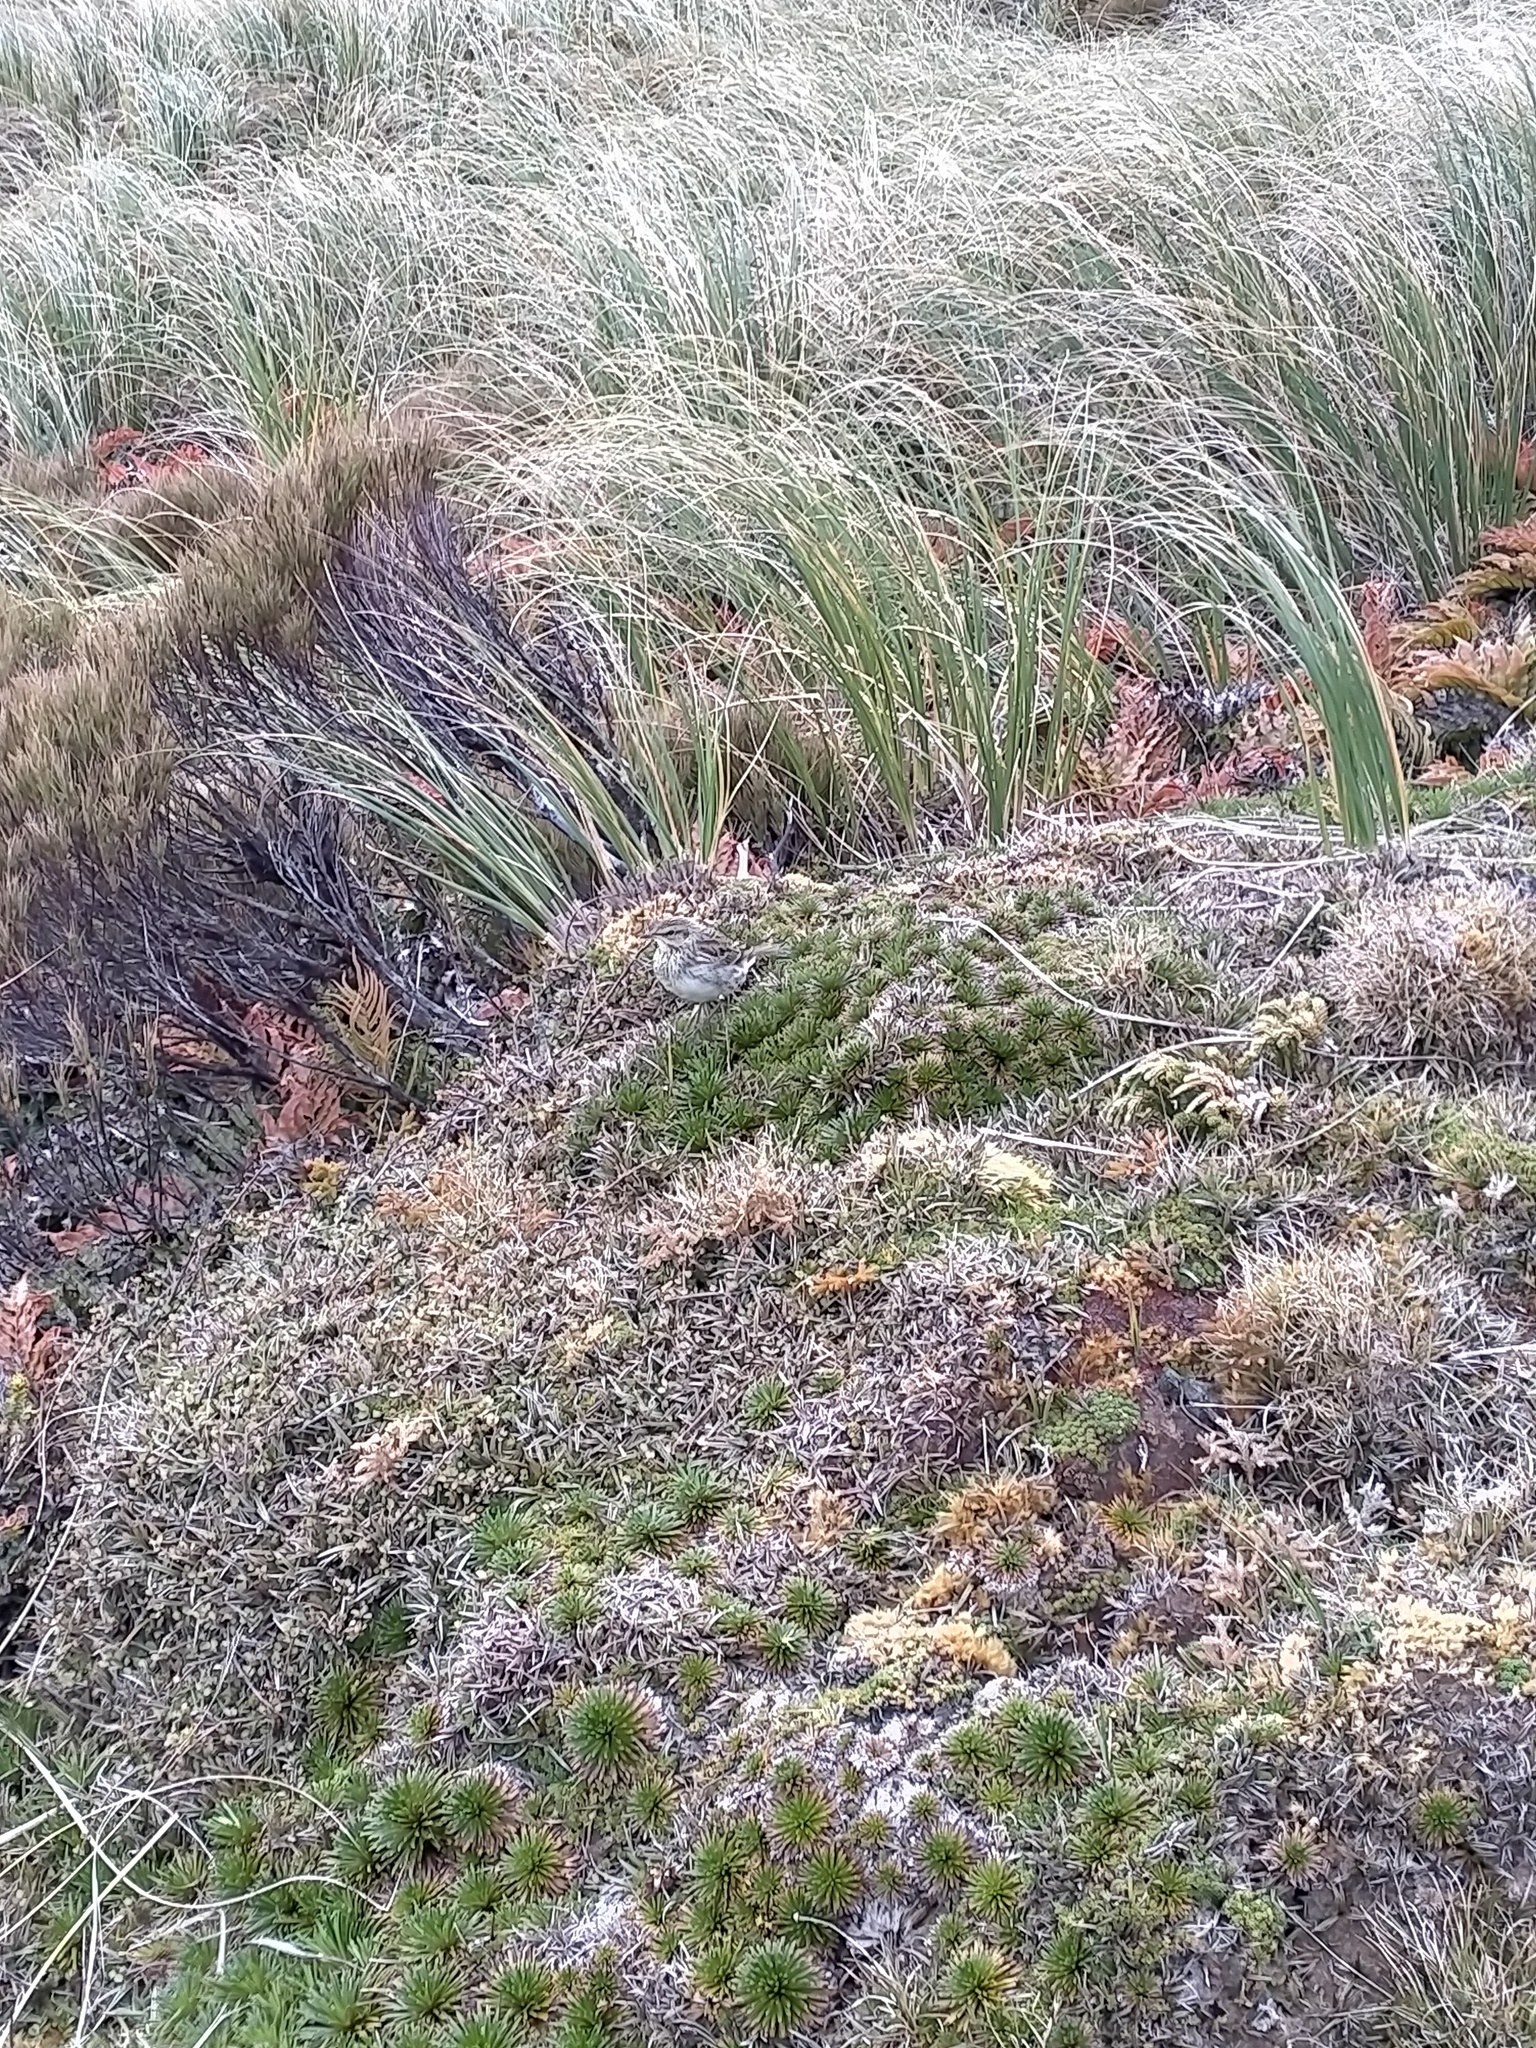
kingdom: Animalia
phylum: Chordata
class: Aves
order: Passeriformes
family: Motacillidae
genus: Anthus
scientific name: Anthus novaeseelandiae
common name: New zealand pipit
